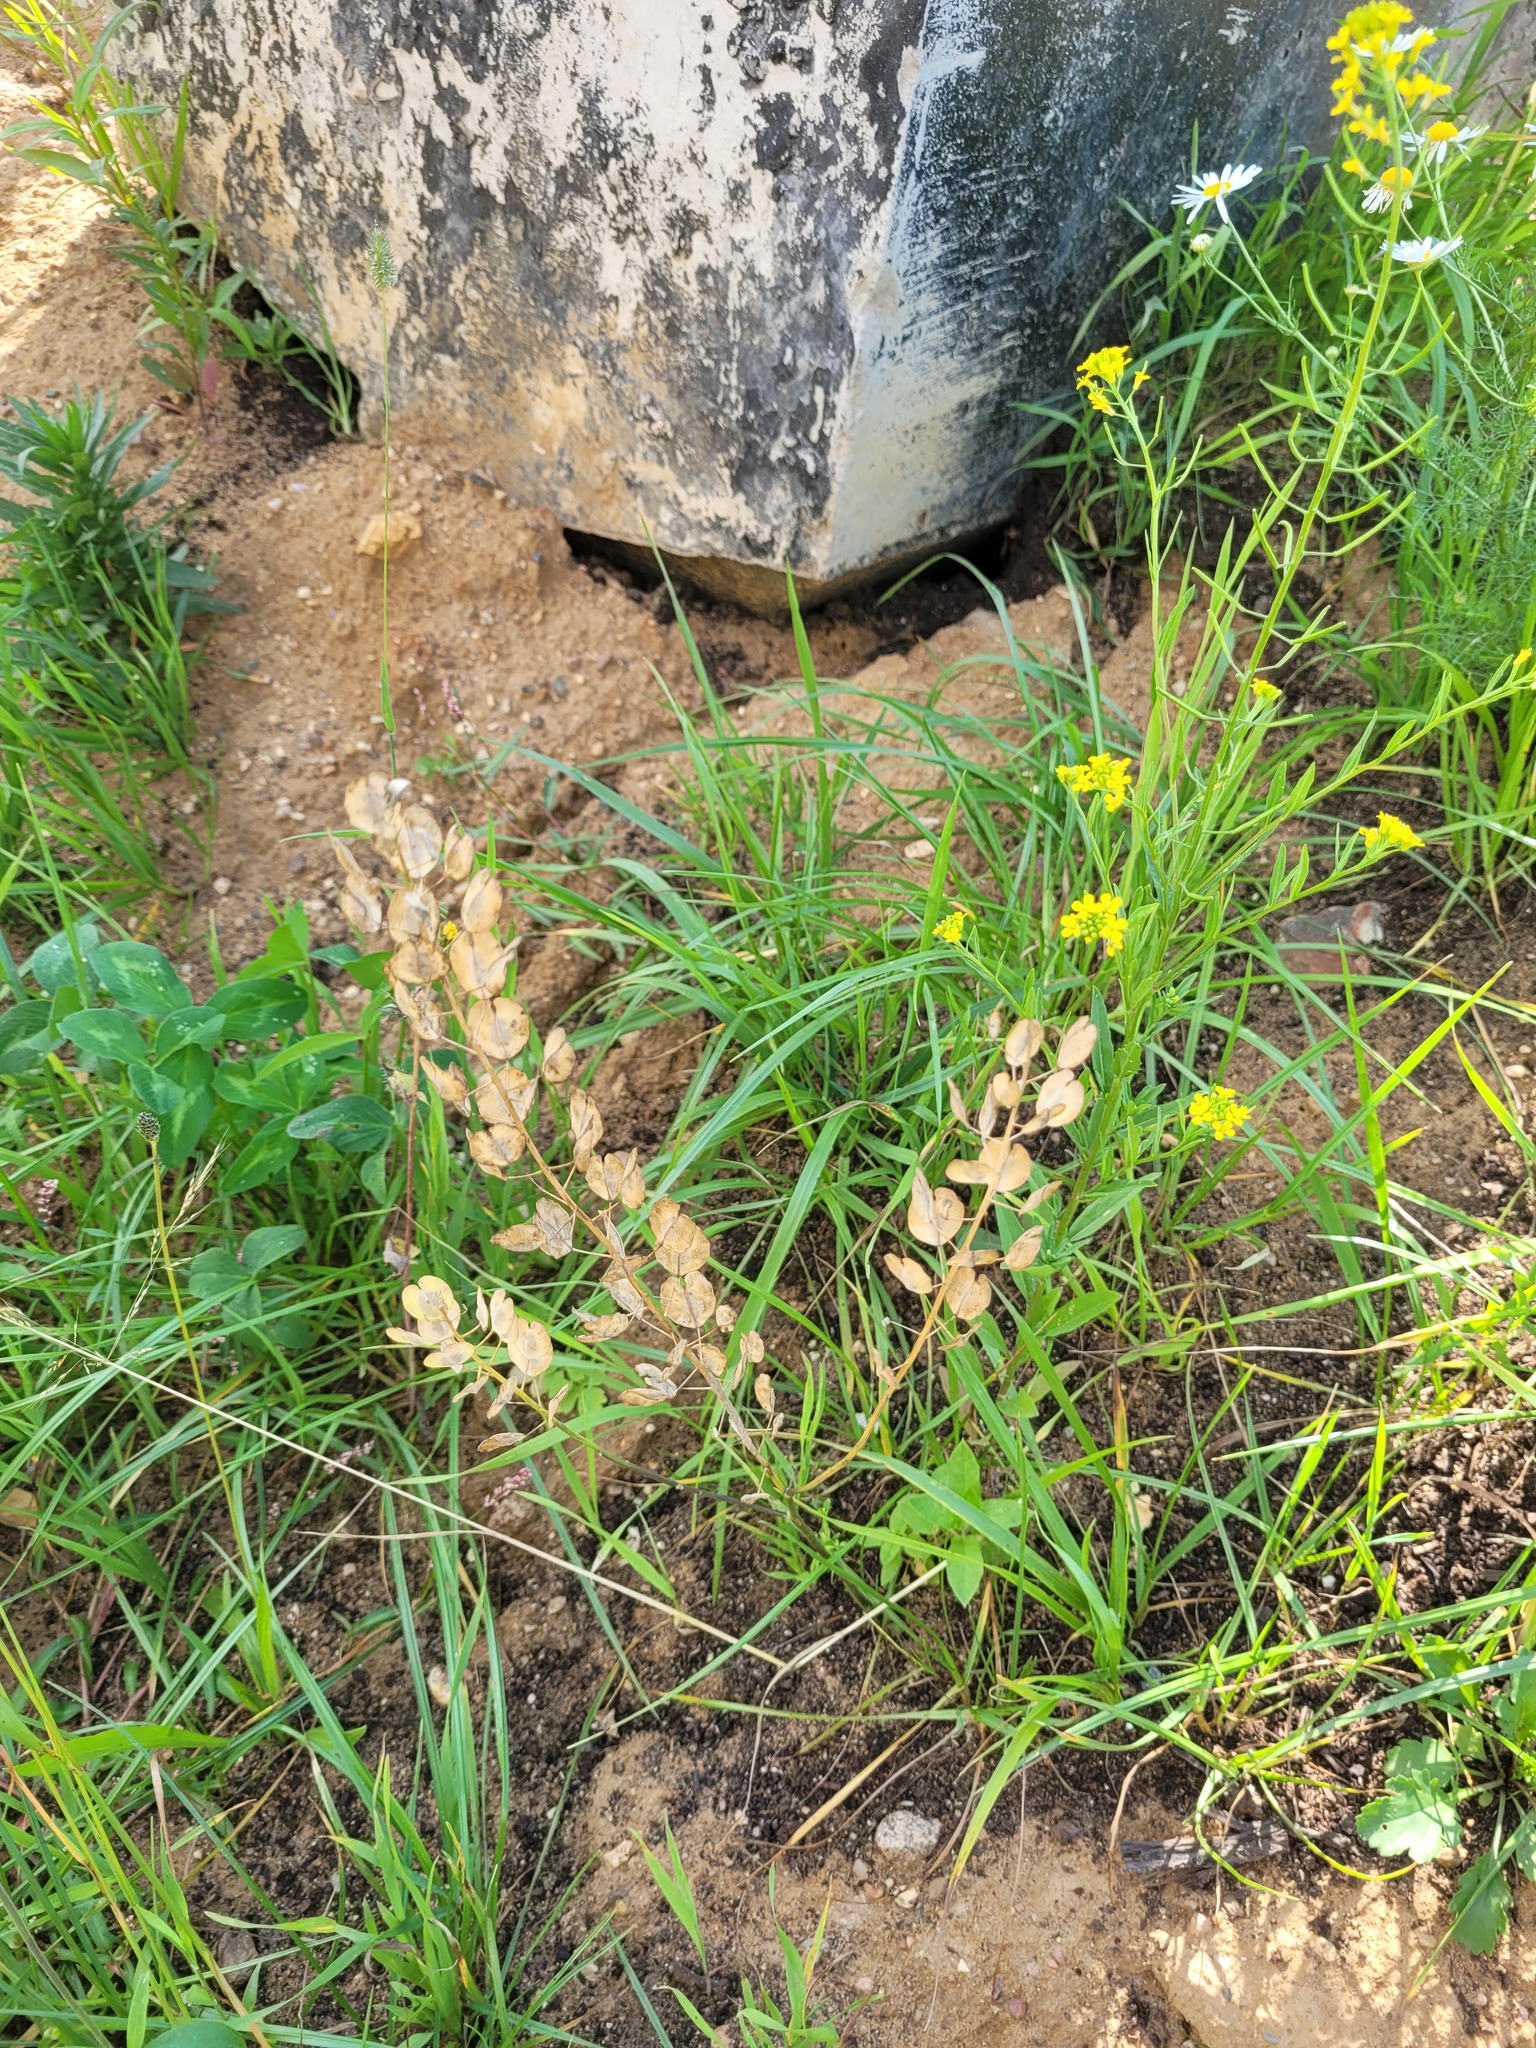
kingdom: Plantae
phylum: Tracheophyta
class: Magnoliopsida
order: Brassicales
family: Brassicaceae
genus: Thlaspi
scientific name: Thlaspi arvense
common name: Field pennycress
